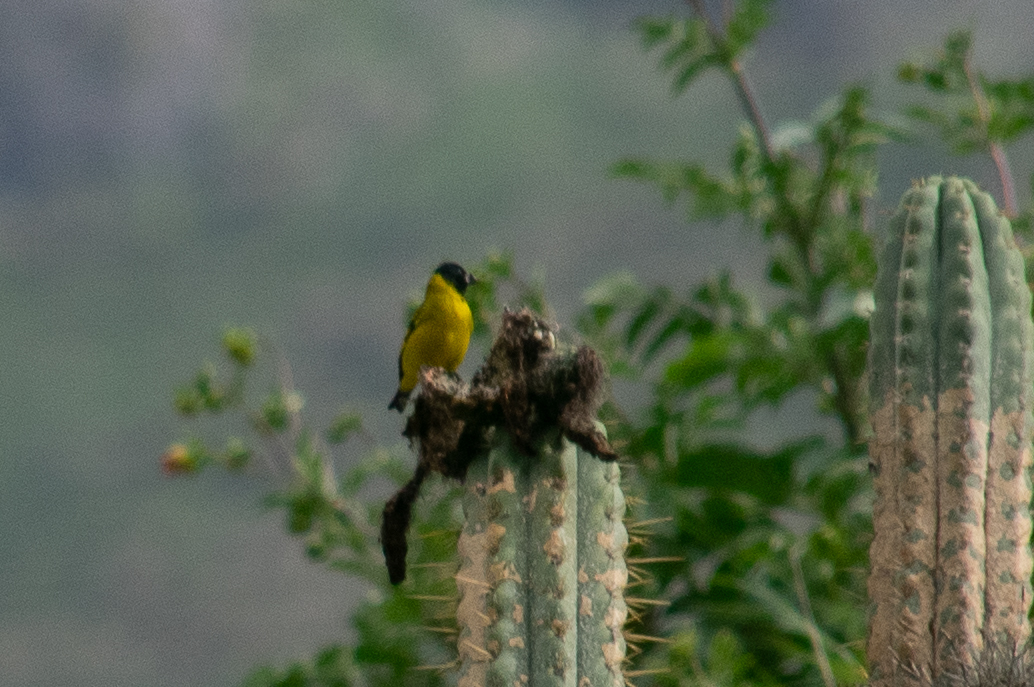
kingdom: Animalia
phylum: Chordata
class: Aves
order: Passeriformes
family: Fringillidae
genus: Spinus
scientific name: Spinus crassirostris
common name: Thick-billed siskin
